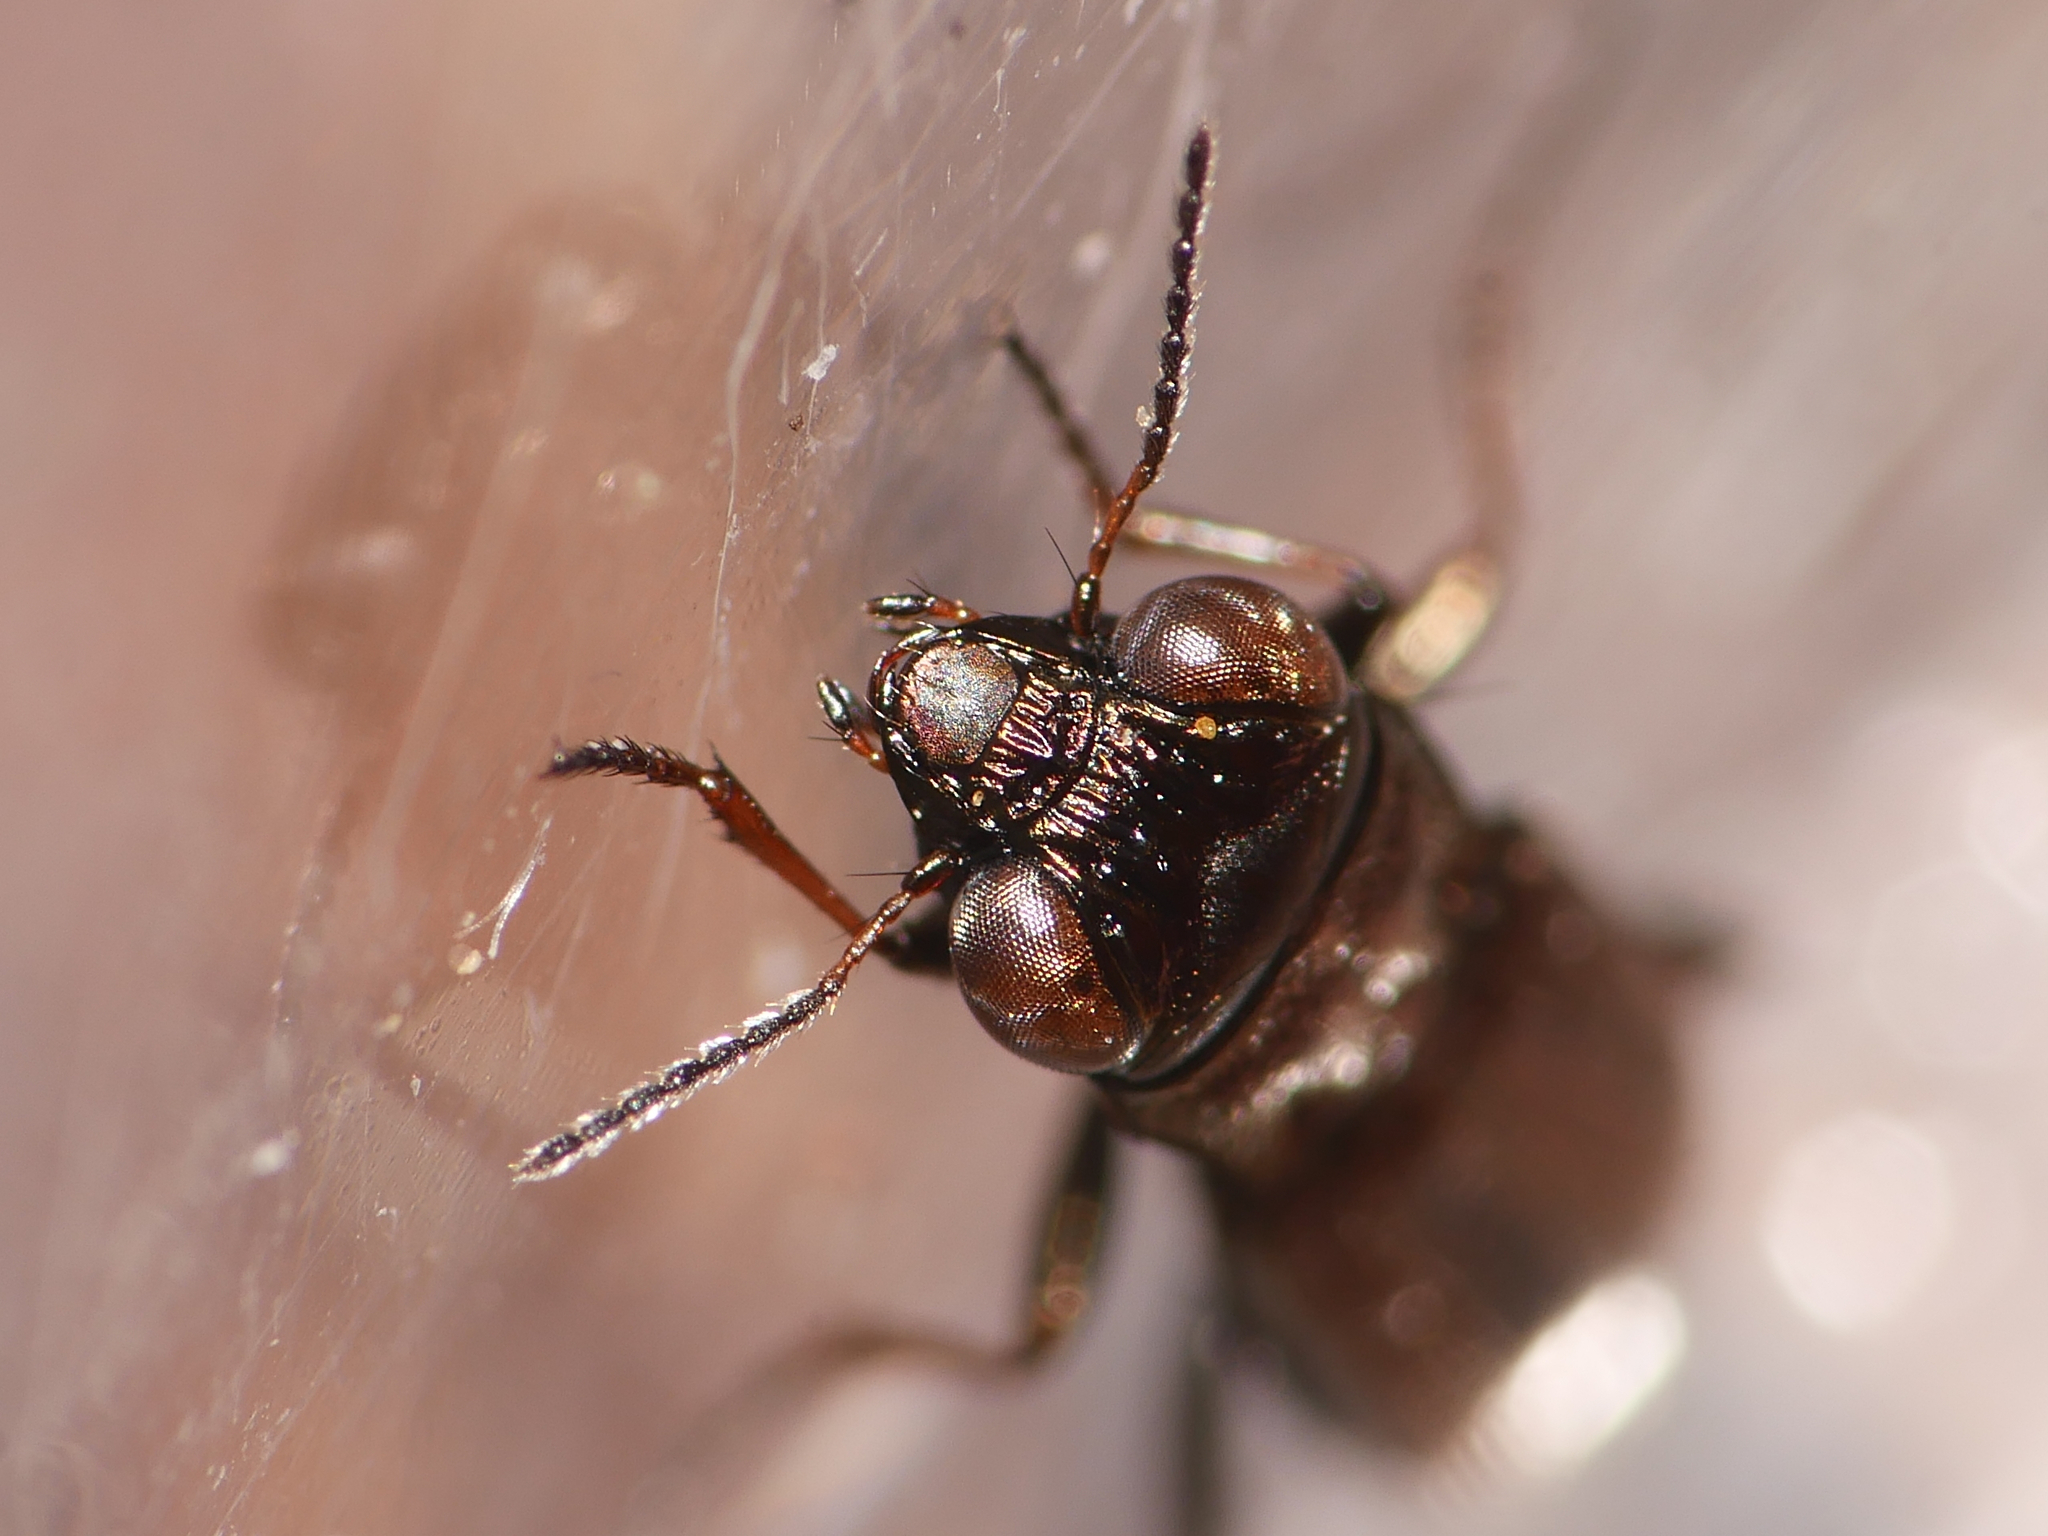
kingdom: Animalia
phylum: Arthropoda
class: Insecta
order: Coleoptera
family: Carabidae
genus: Notiophilus
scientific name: Notiophilus biguttatus
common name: Spotted gazelle beetle
